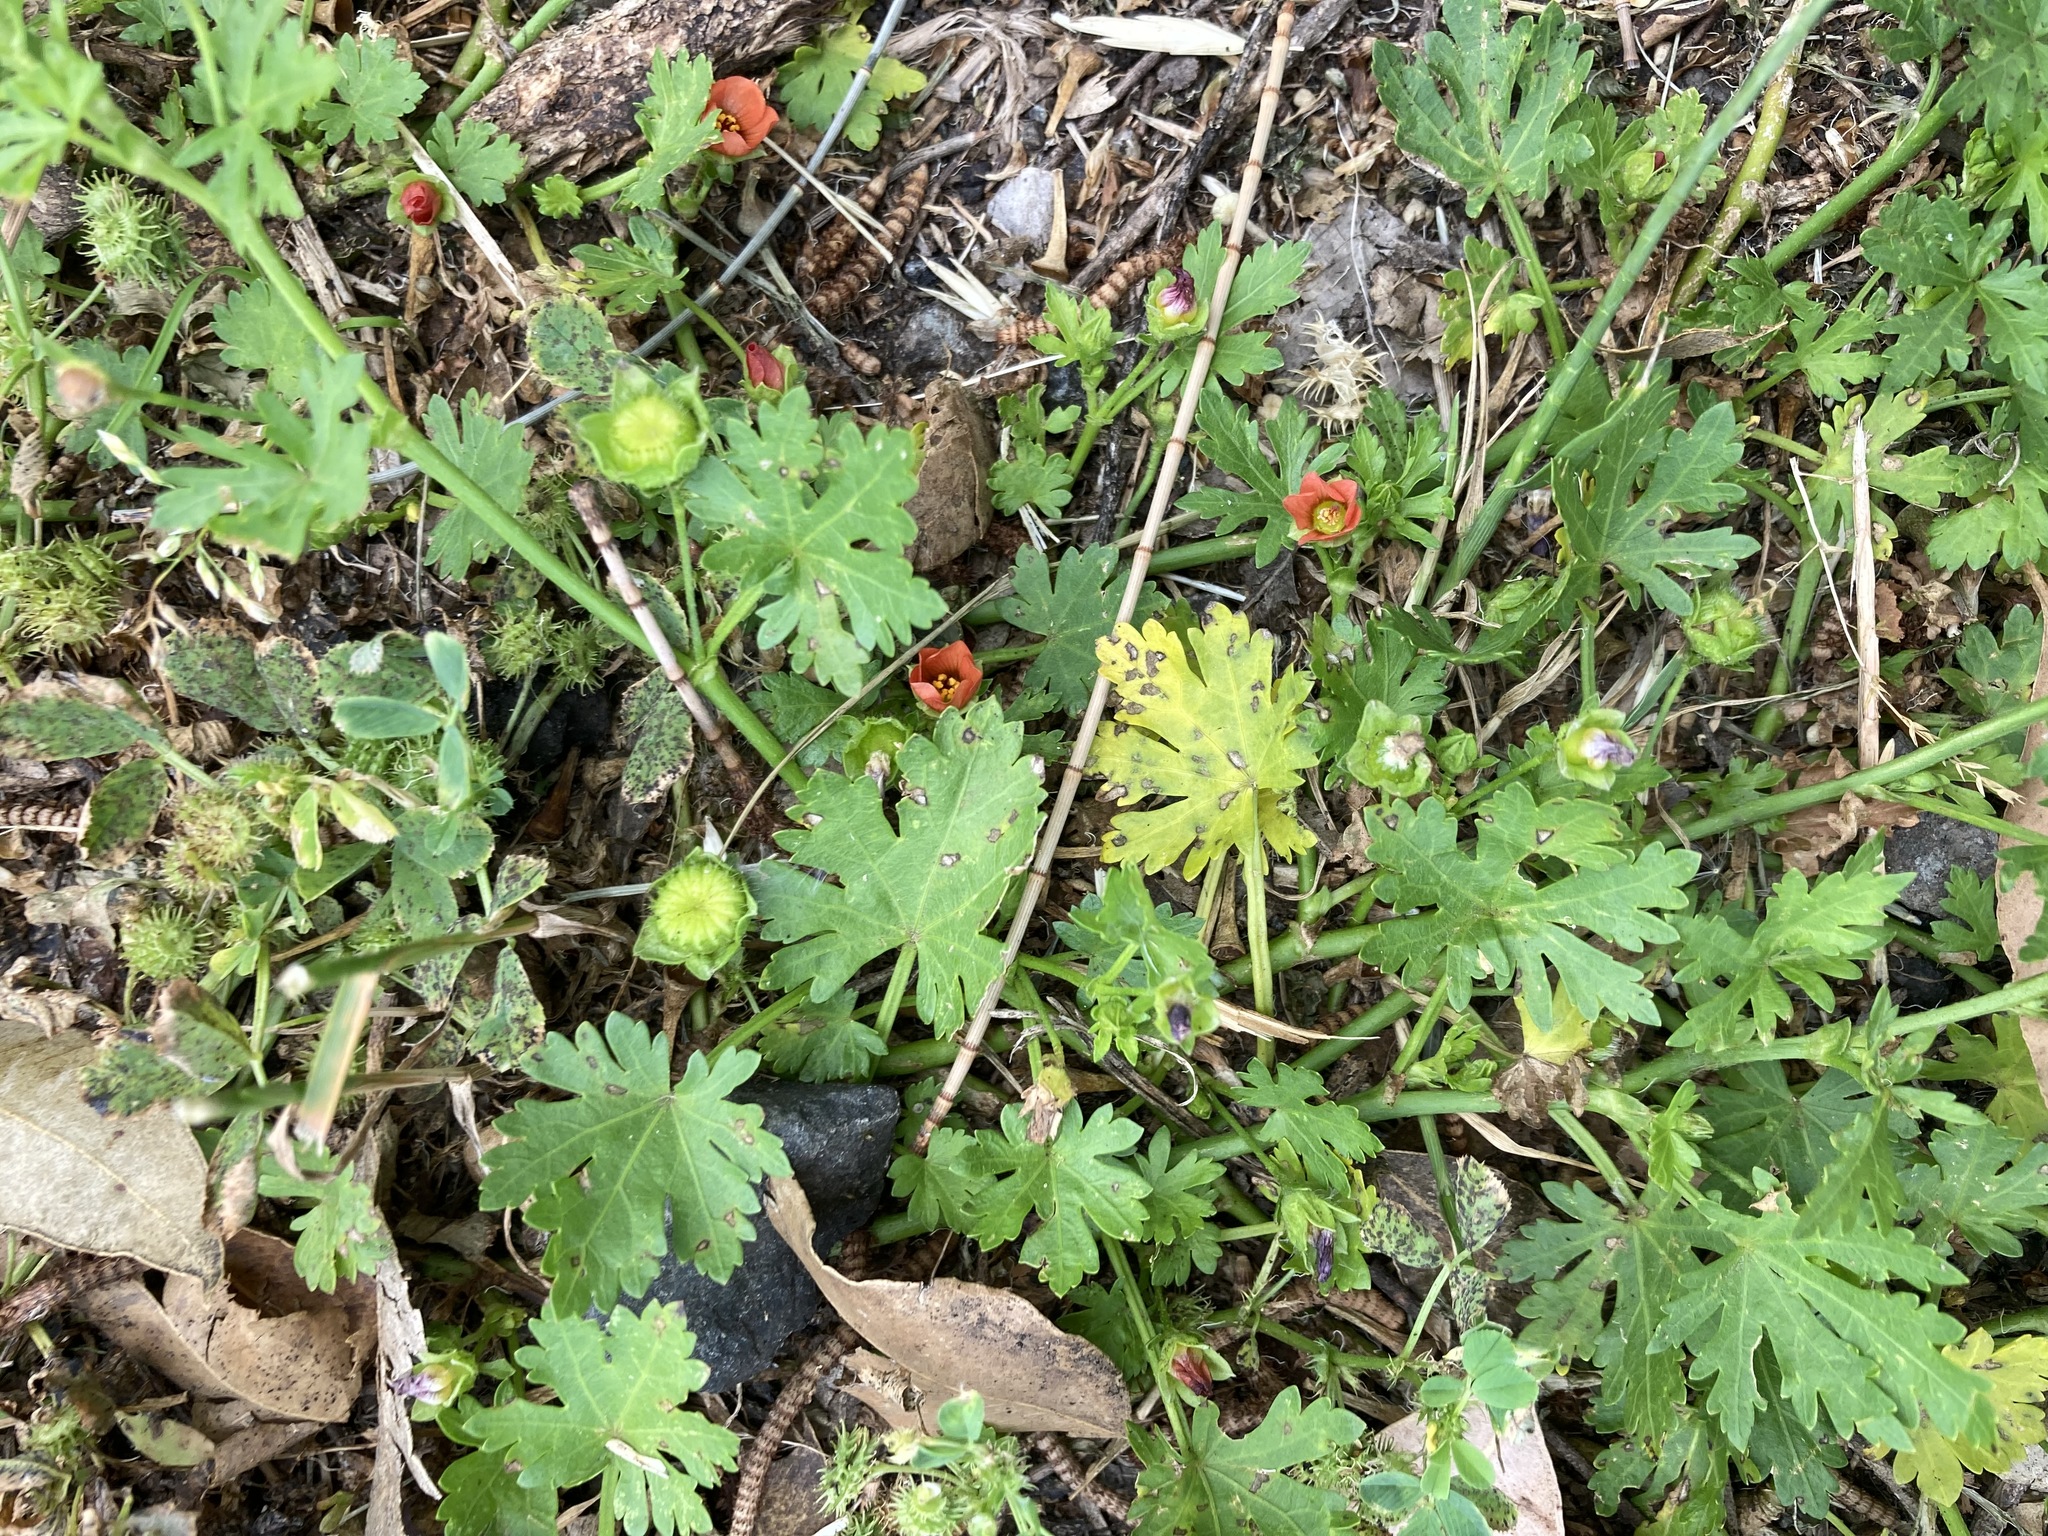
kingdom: Plantae
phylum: Tracheophyta
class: Magnoliopsida
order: Malvales
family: Malvaceae
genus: Modiola
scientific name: Modiola caroliniana
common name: Carolina bristlemallow
